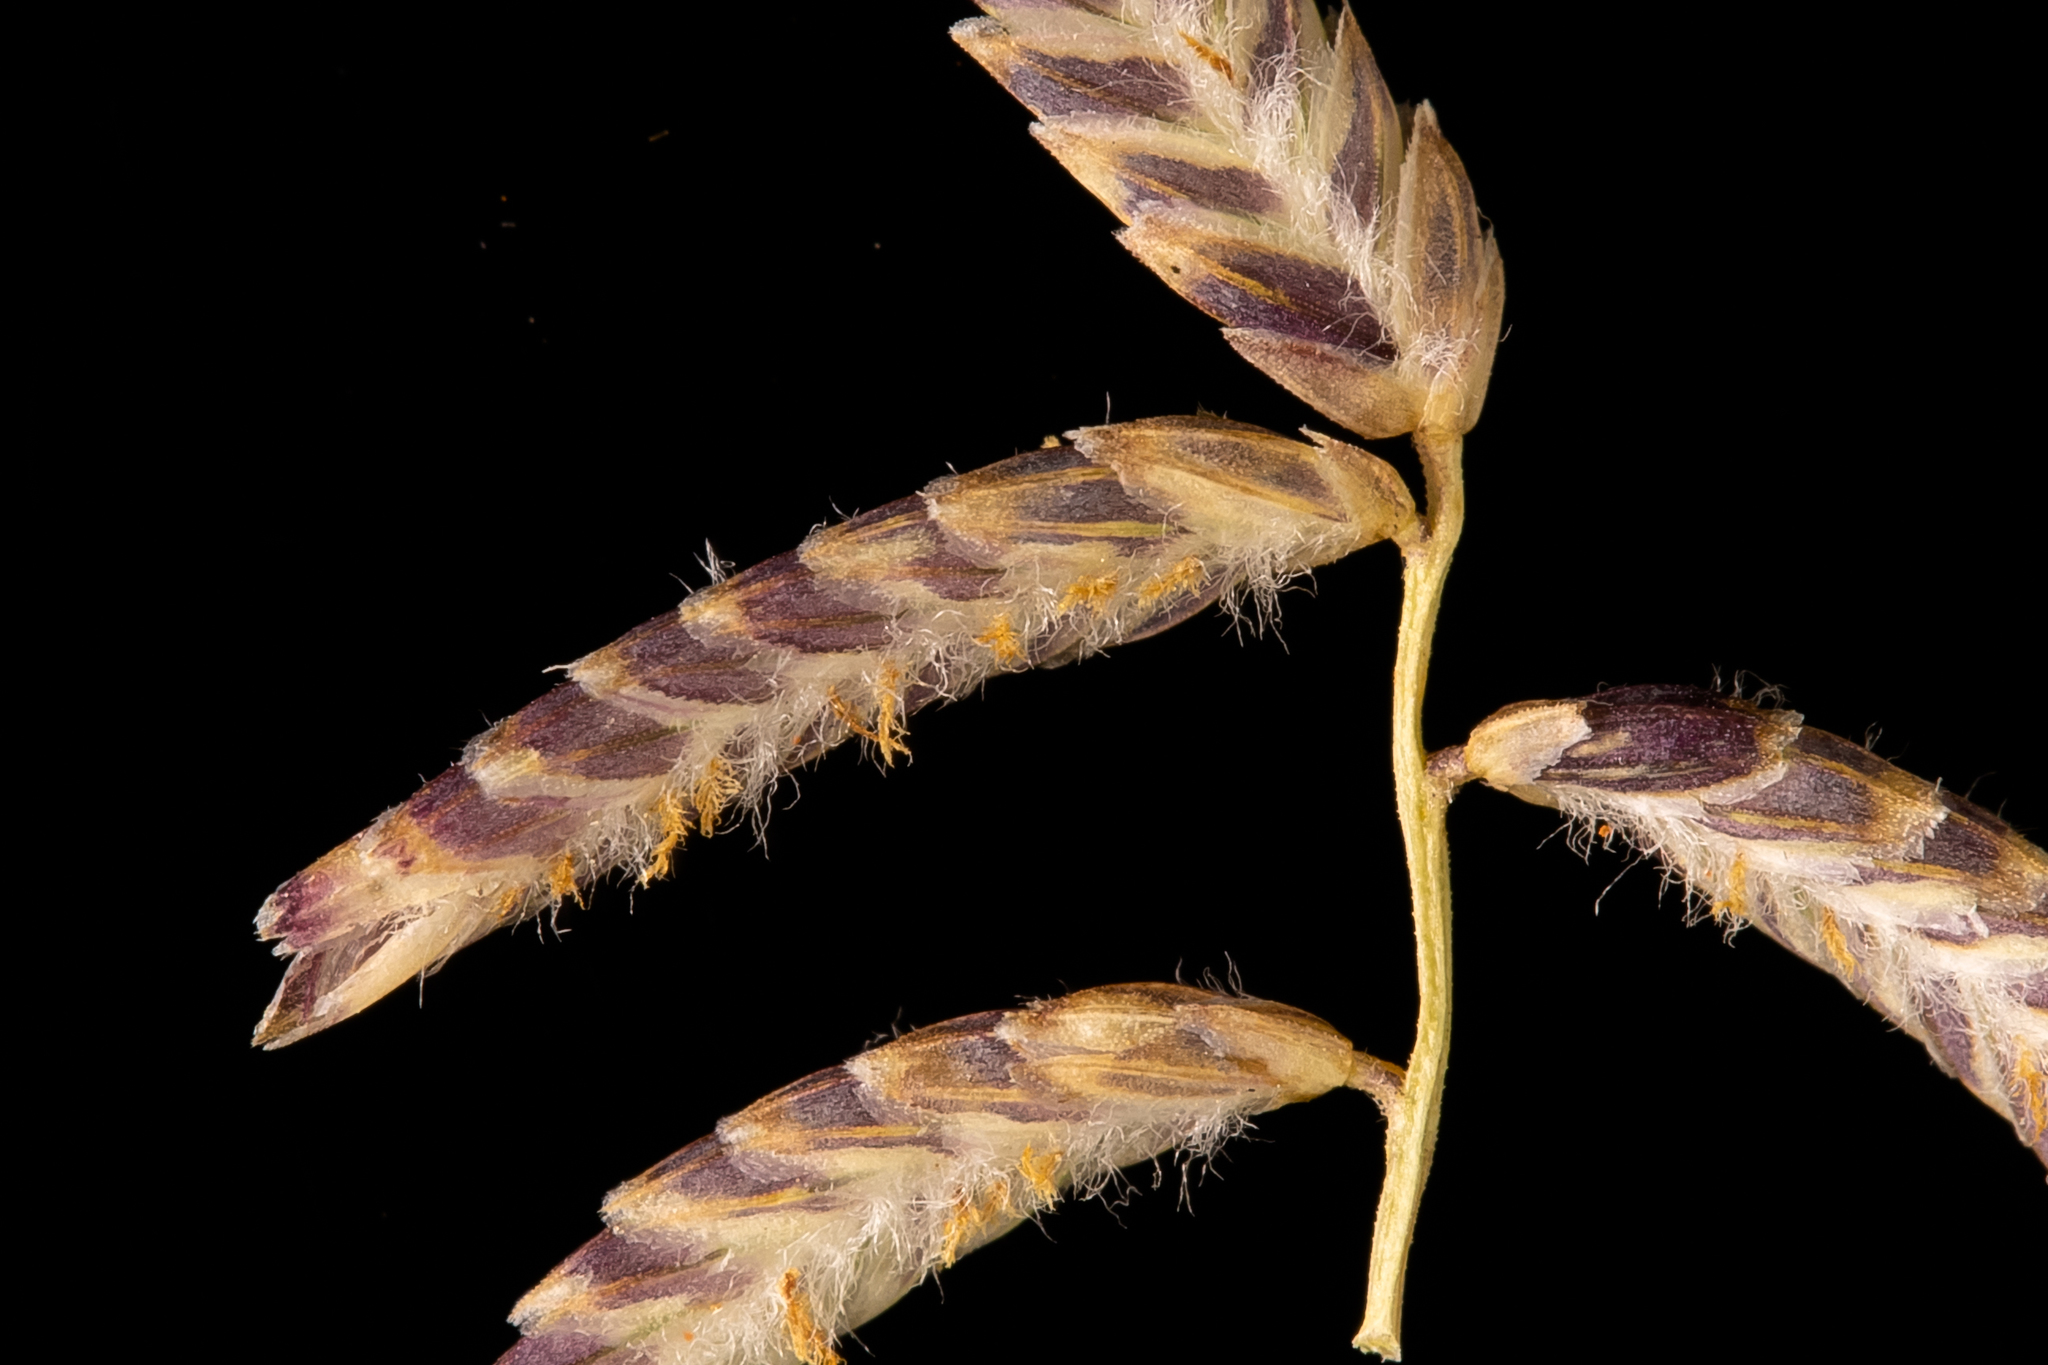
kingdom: Plantae
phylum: Tracheophyta
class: Liliopsida
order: Poales
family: Poaceae
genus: Eragrostis
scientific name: Eragrostis laniflora
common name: Woolly-flower lovegrass
